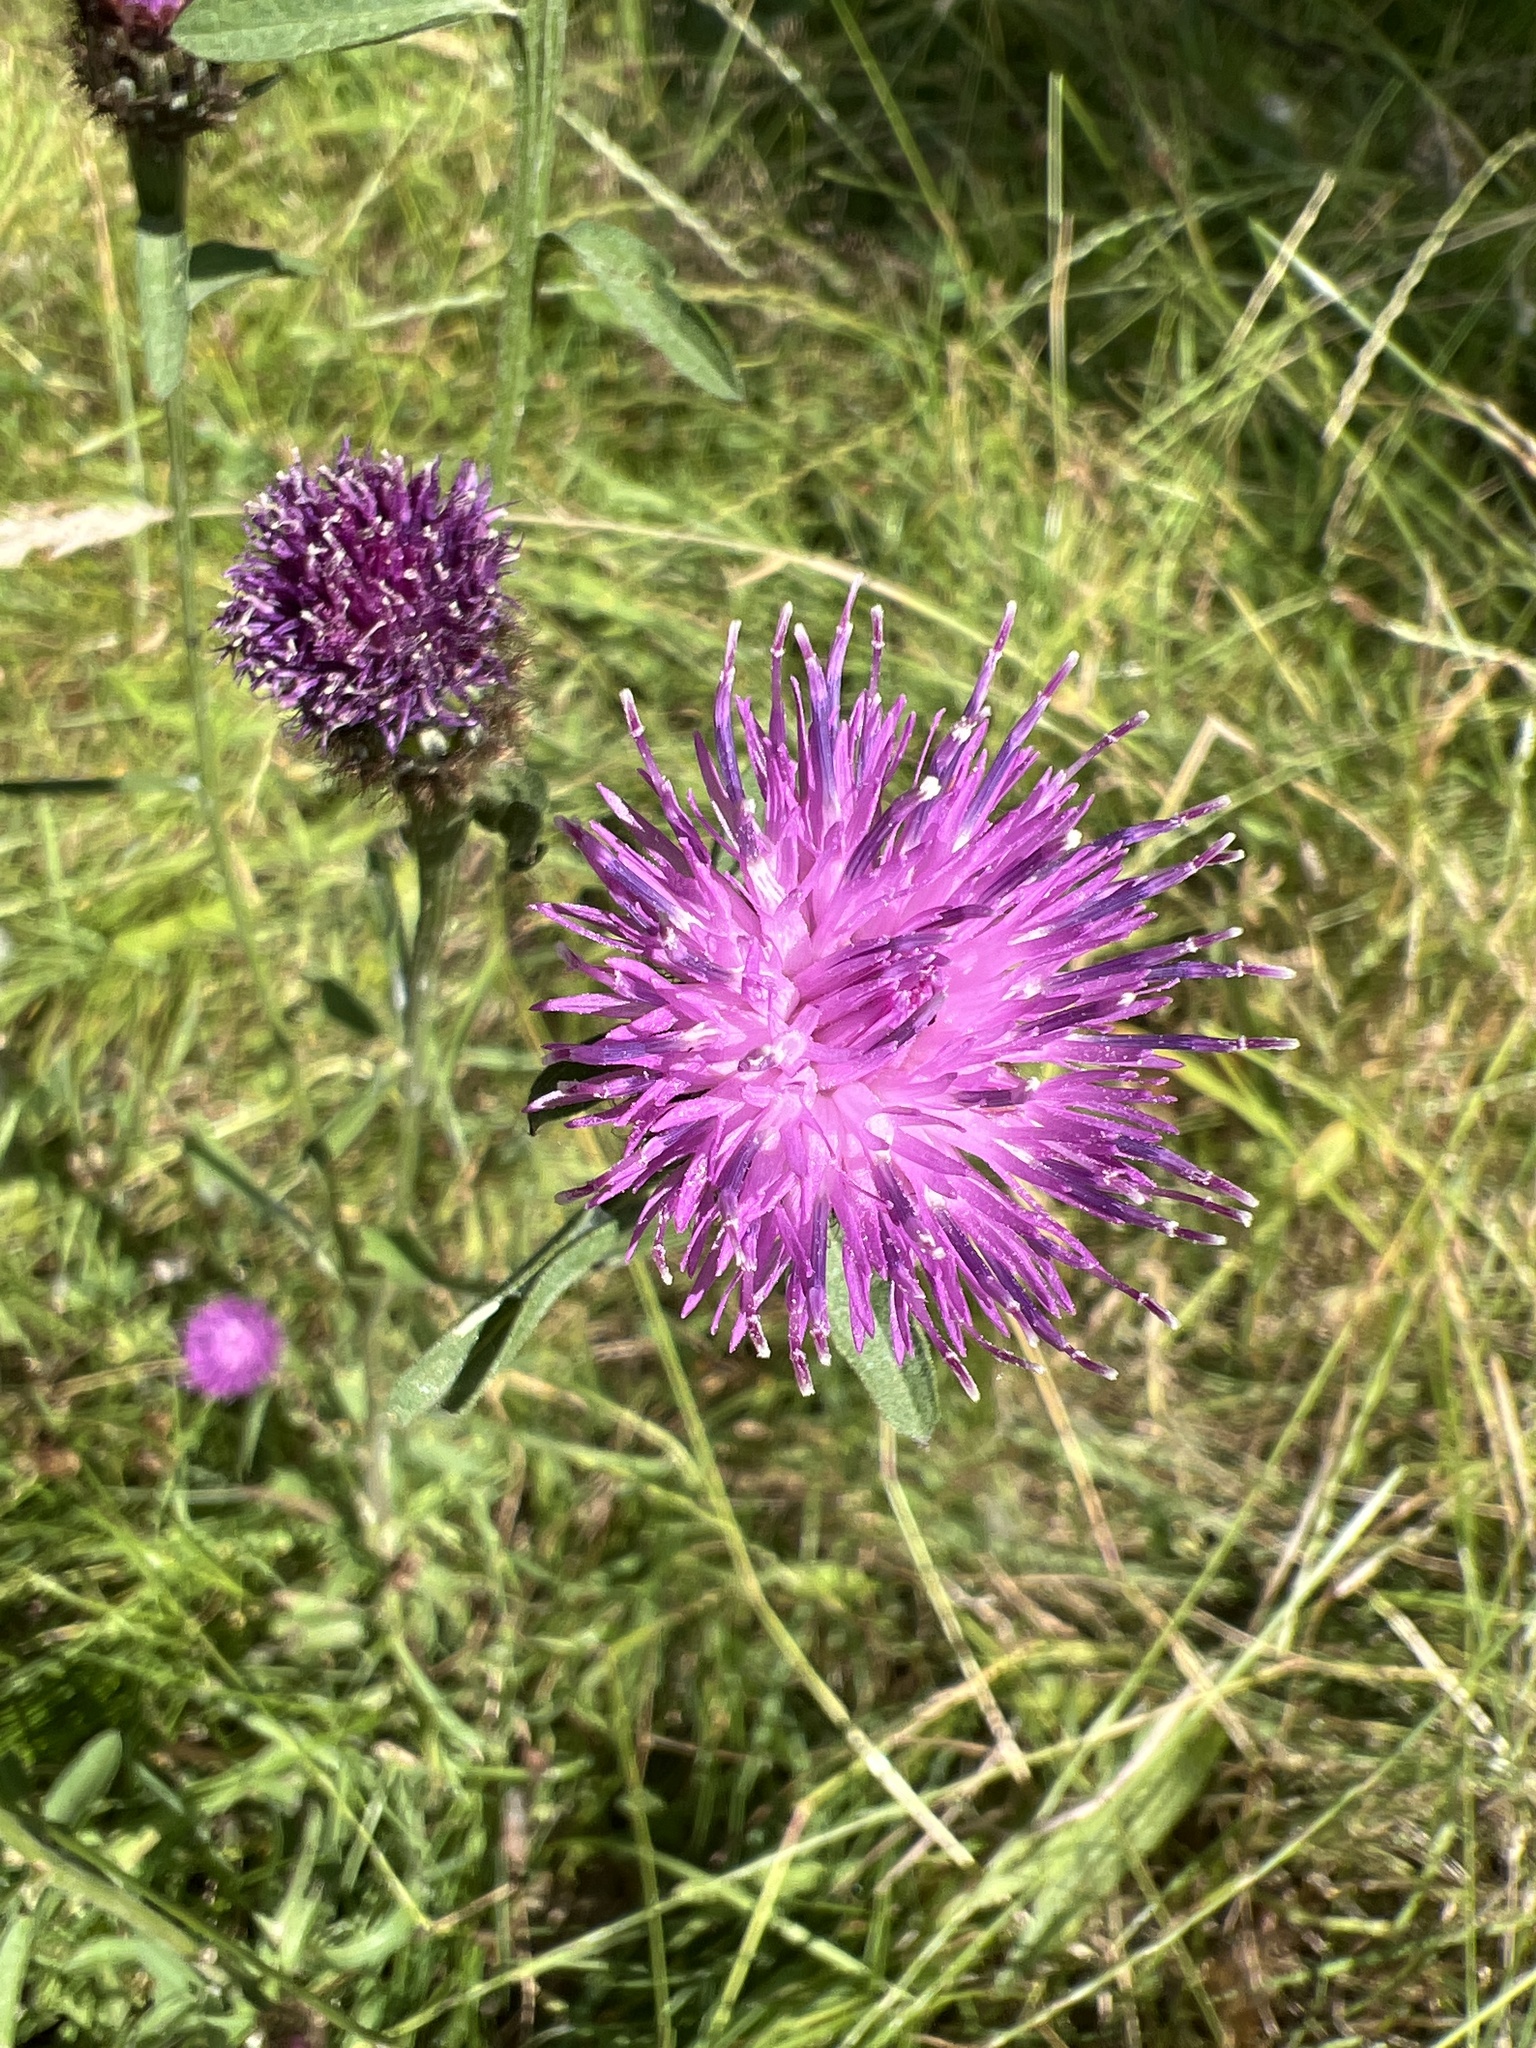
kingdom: Plantae
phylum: Tracheophyta
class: Magnoliopsida
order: Asterales
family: Asteraceae
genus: Centaurea
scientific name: Centaurea nigra
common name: Lesser knapweed
